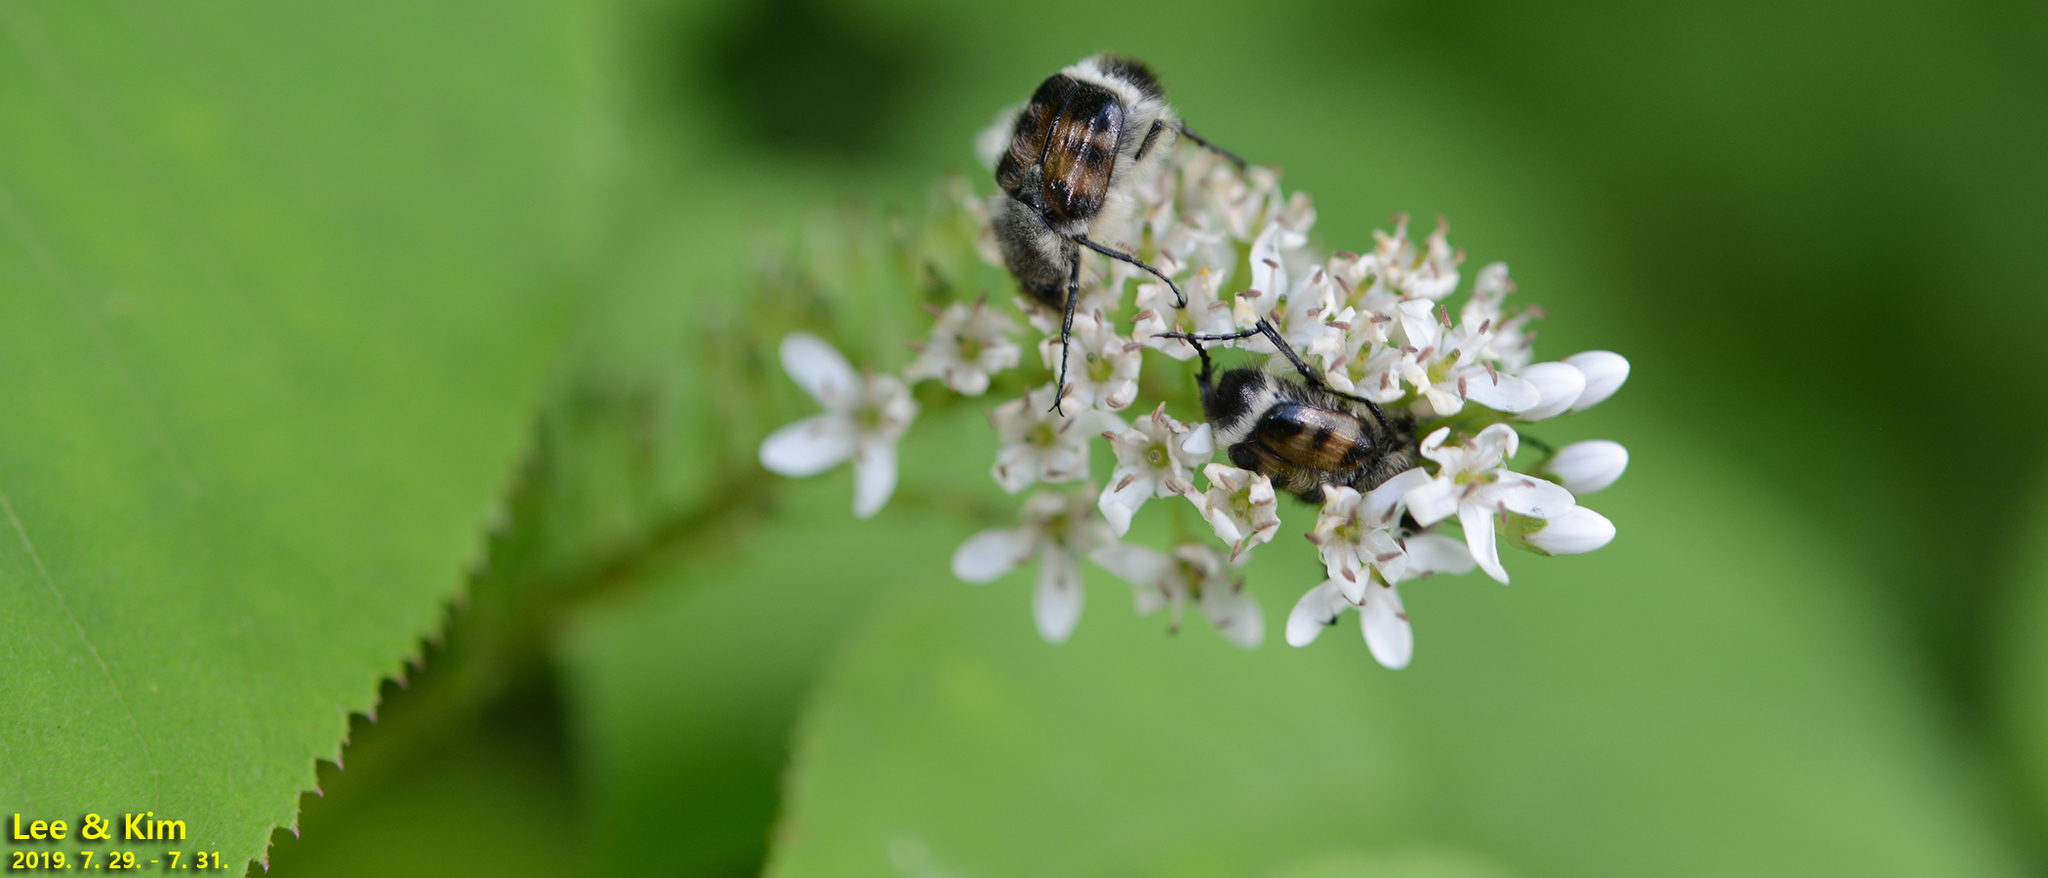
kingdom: Animalia
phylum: Arthropoda
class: Insecta
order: Coleoptera
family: Scarabaeidae
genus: Lasiotrichius
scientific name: Lasiotrichius succinctus
